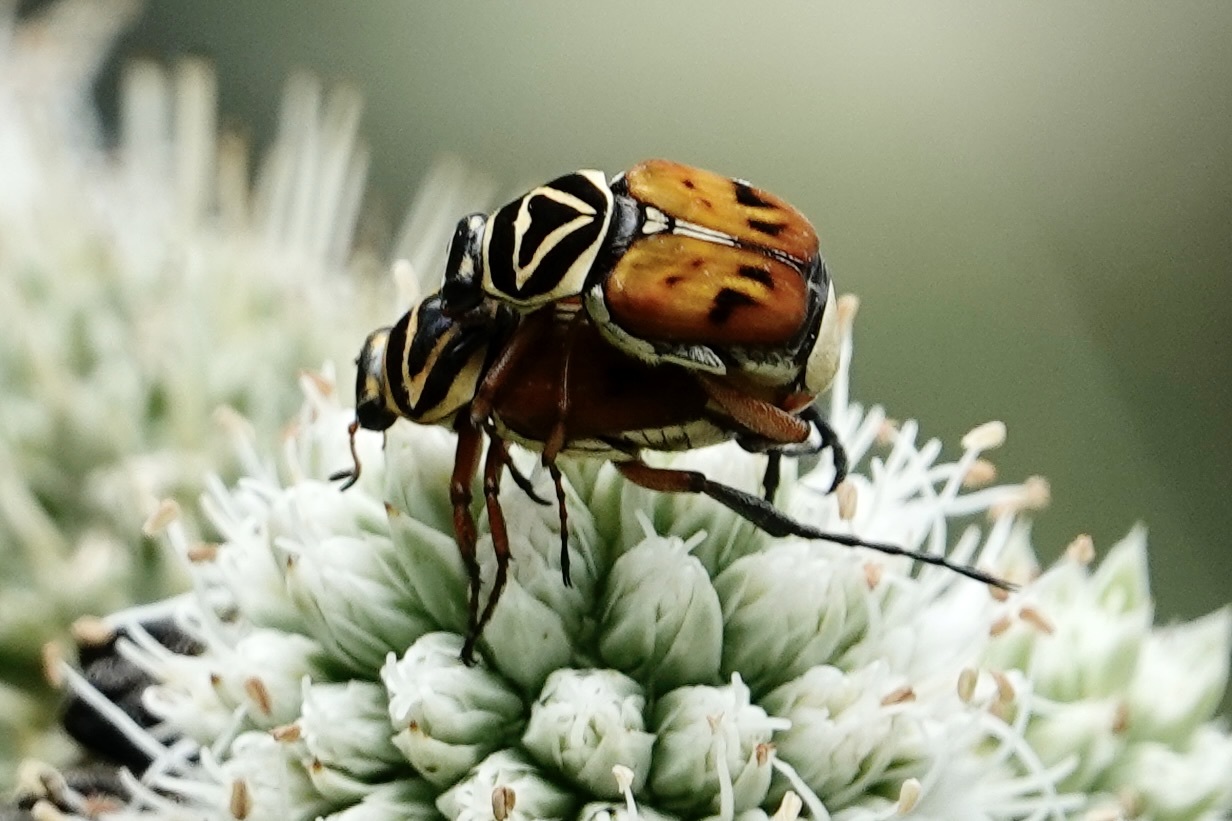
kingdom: Animalia
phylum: Arthropoda
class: Insecta
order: Coleoptera
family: Scarabaeidae
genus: Trigonopeltastes
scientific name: Trigonopeltastes delta
